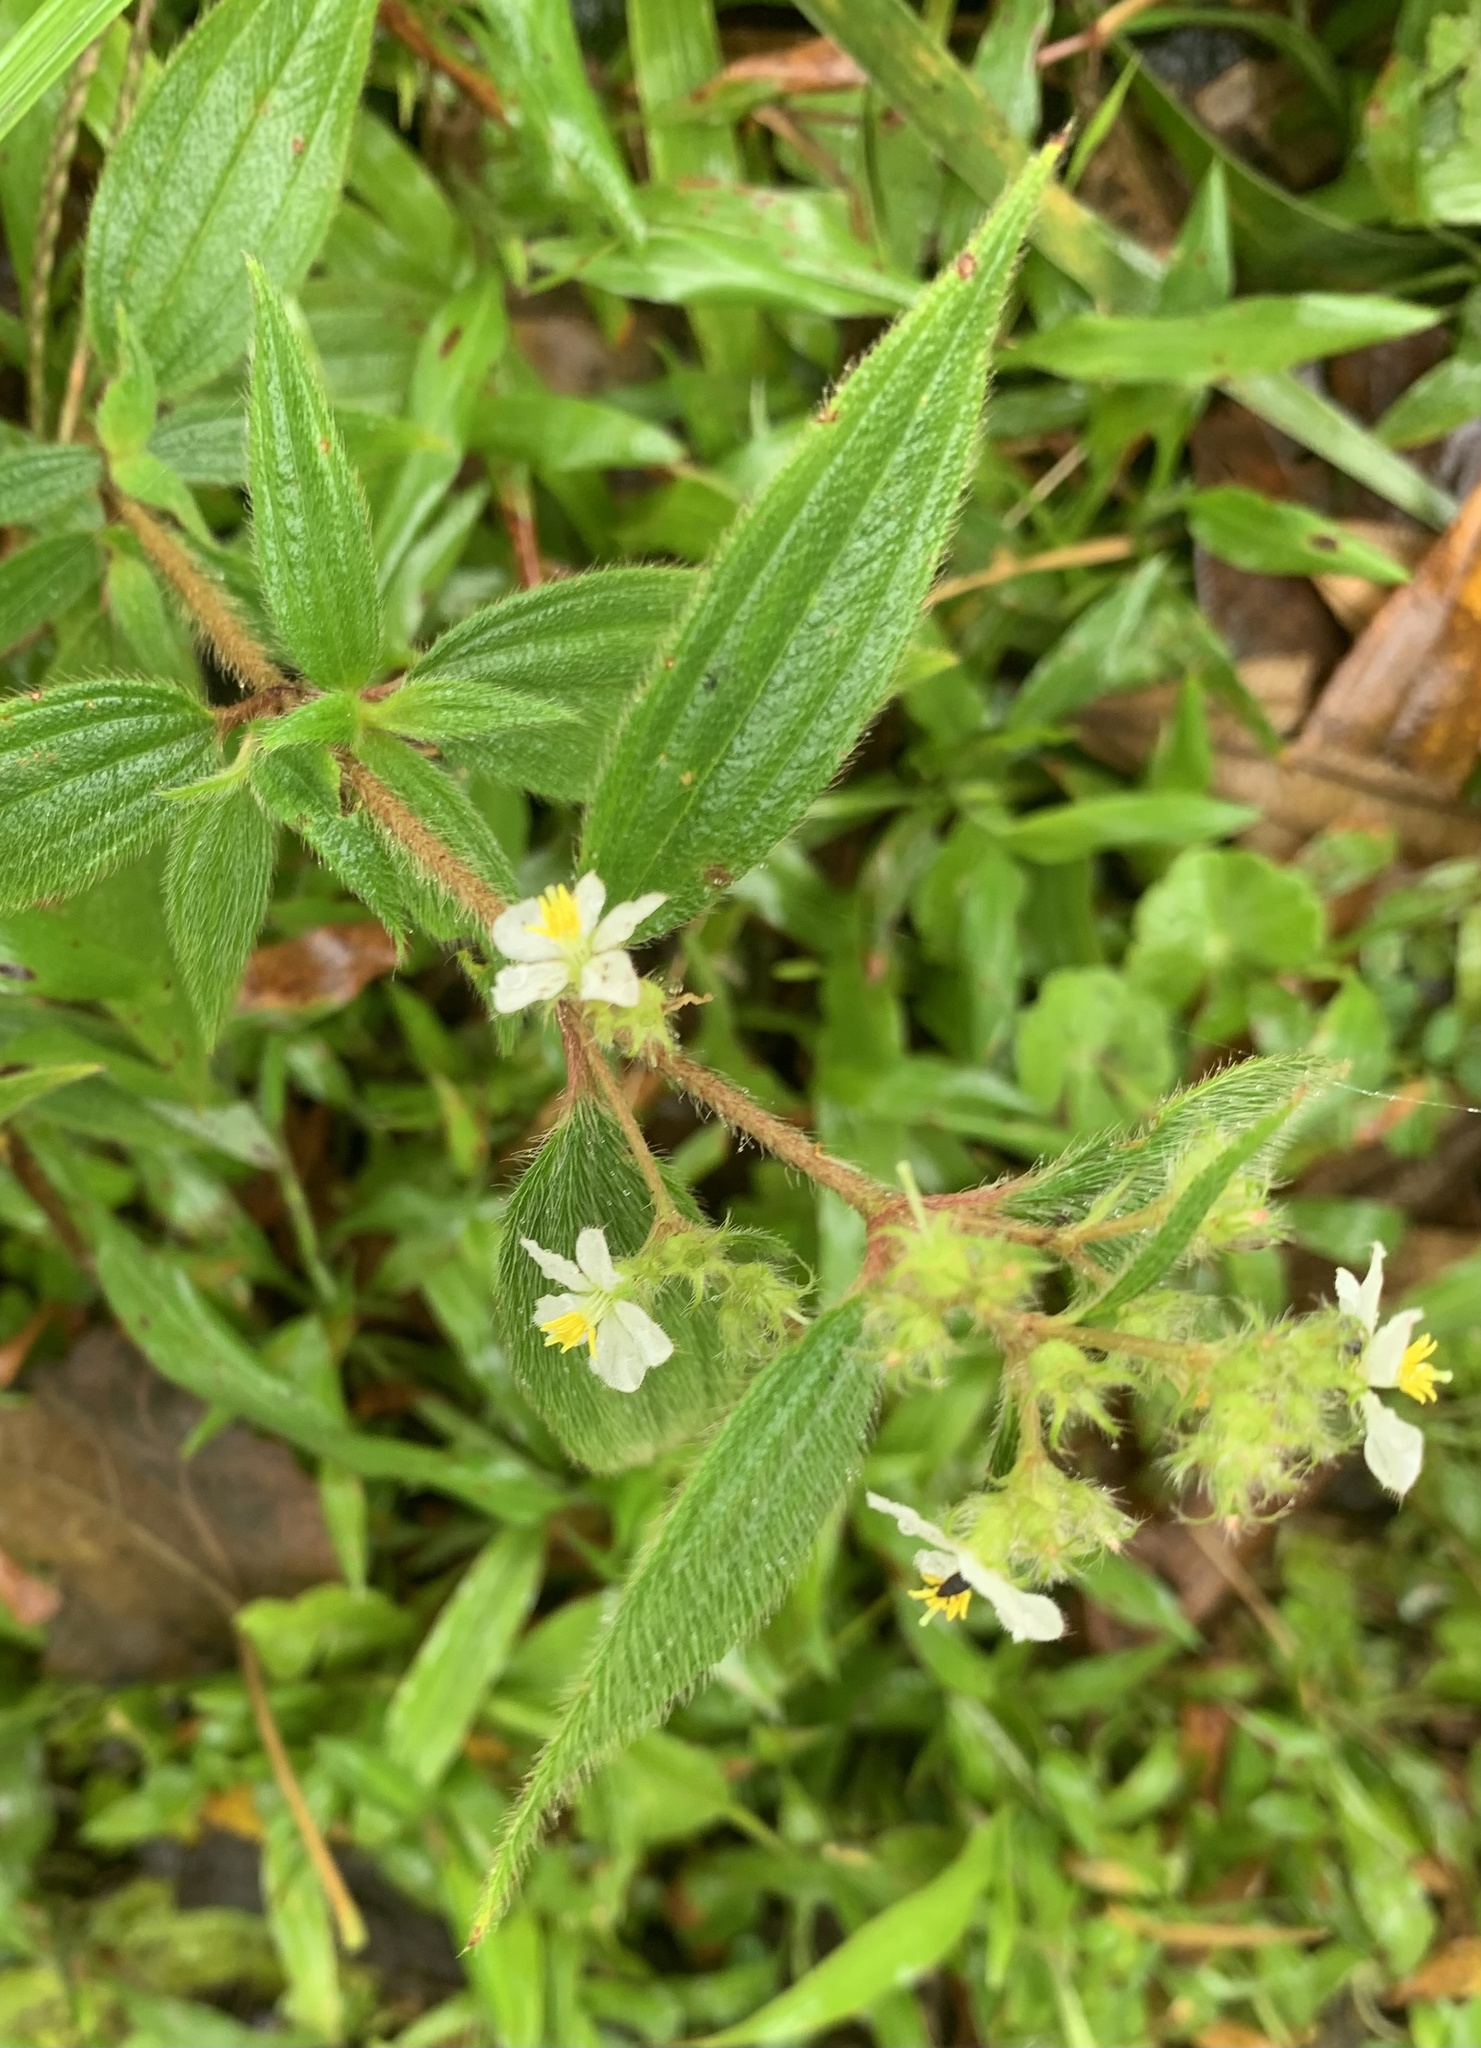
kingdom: Plantae
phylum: Tracheophyta
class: Magnoliopsida
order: Myrtales
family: Melastomataceae
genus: Chaetogastra
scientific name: Chaetogastra longifolia
